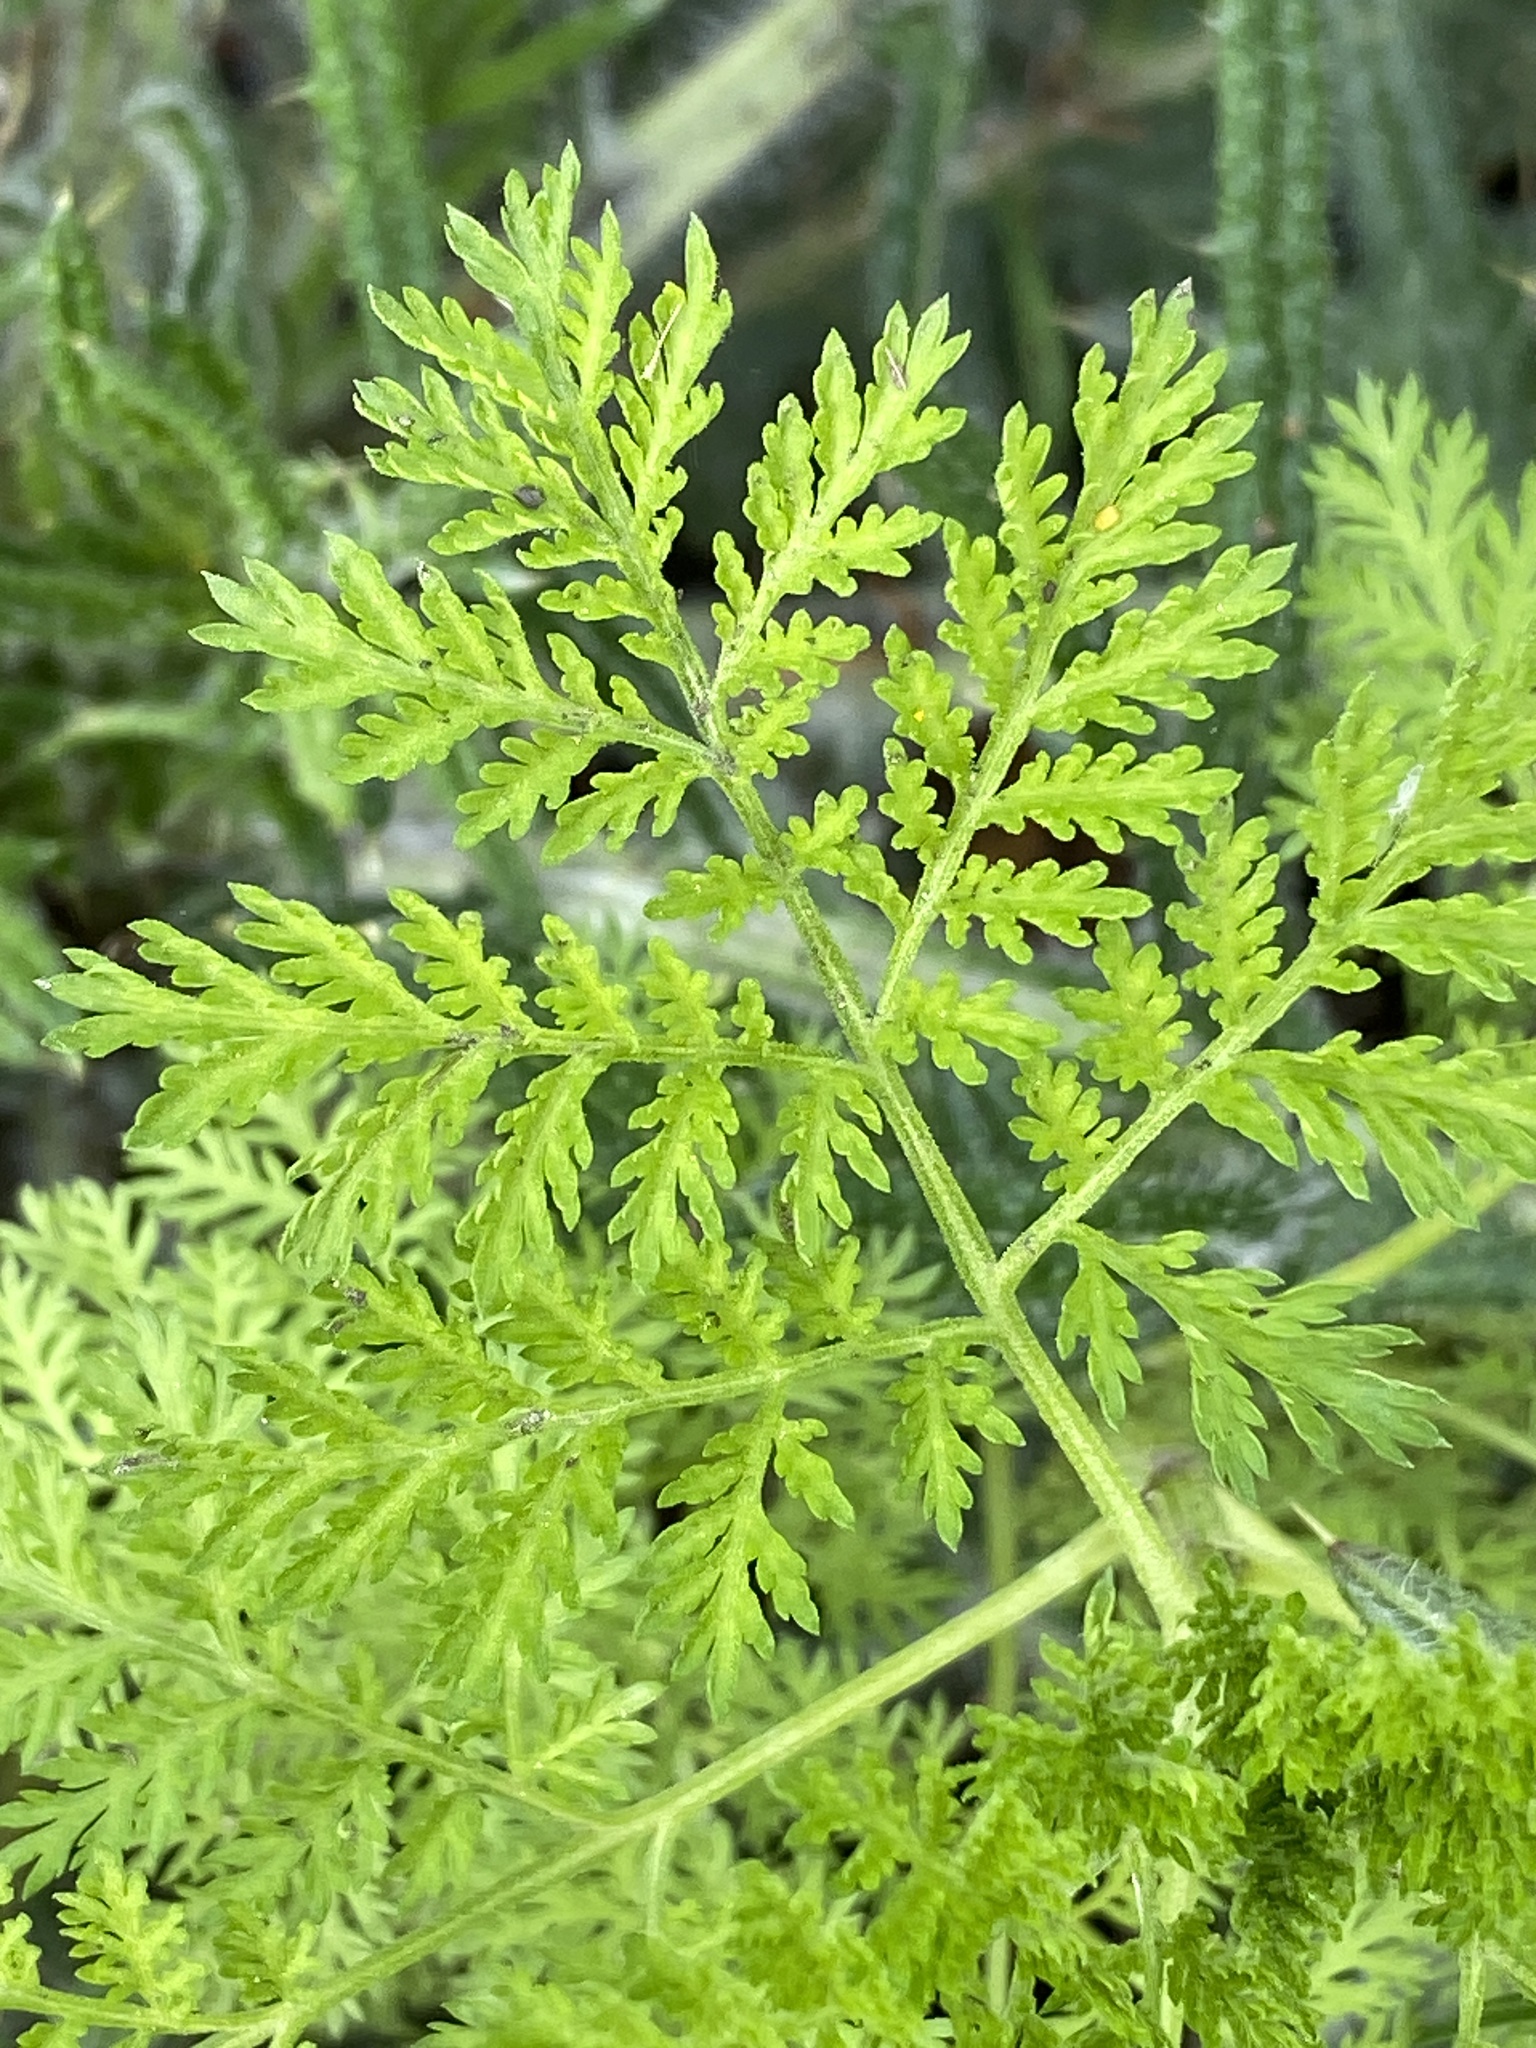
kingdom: Plantae
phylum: Tracheophyta
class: Magnoliopsida
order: Asterales
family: Asteraceae
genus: Artemisia
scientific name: Artemisia annua
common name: Sweet sagewort
